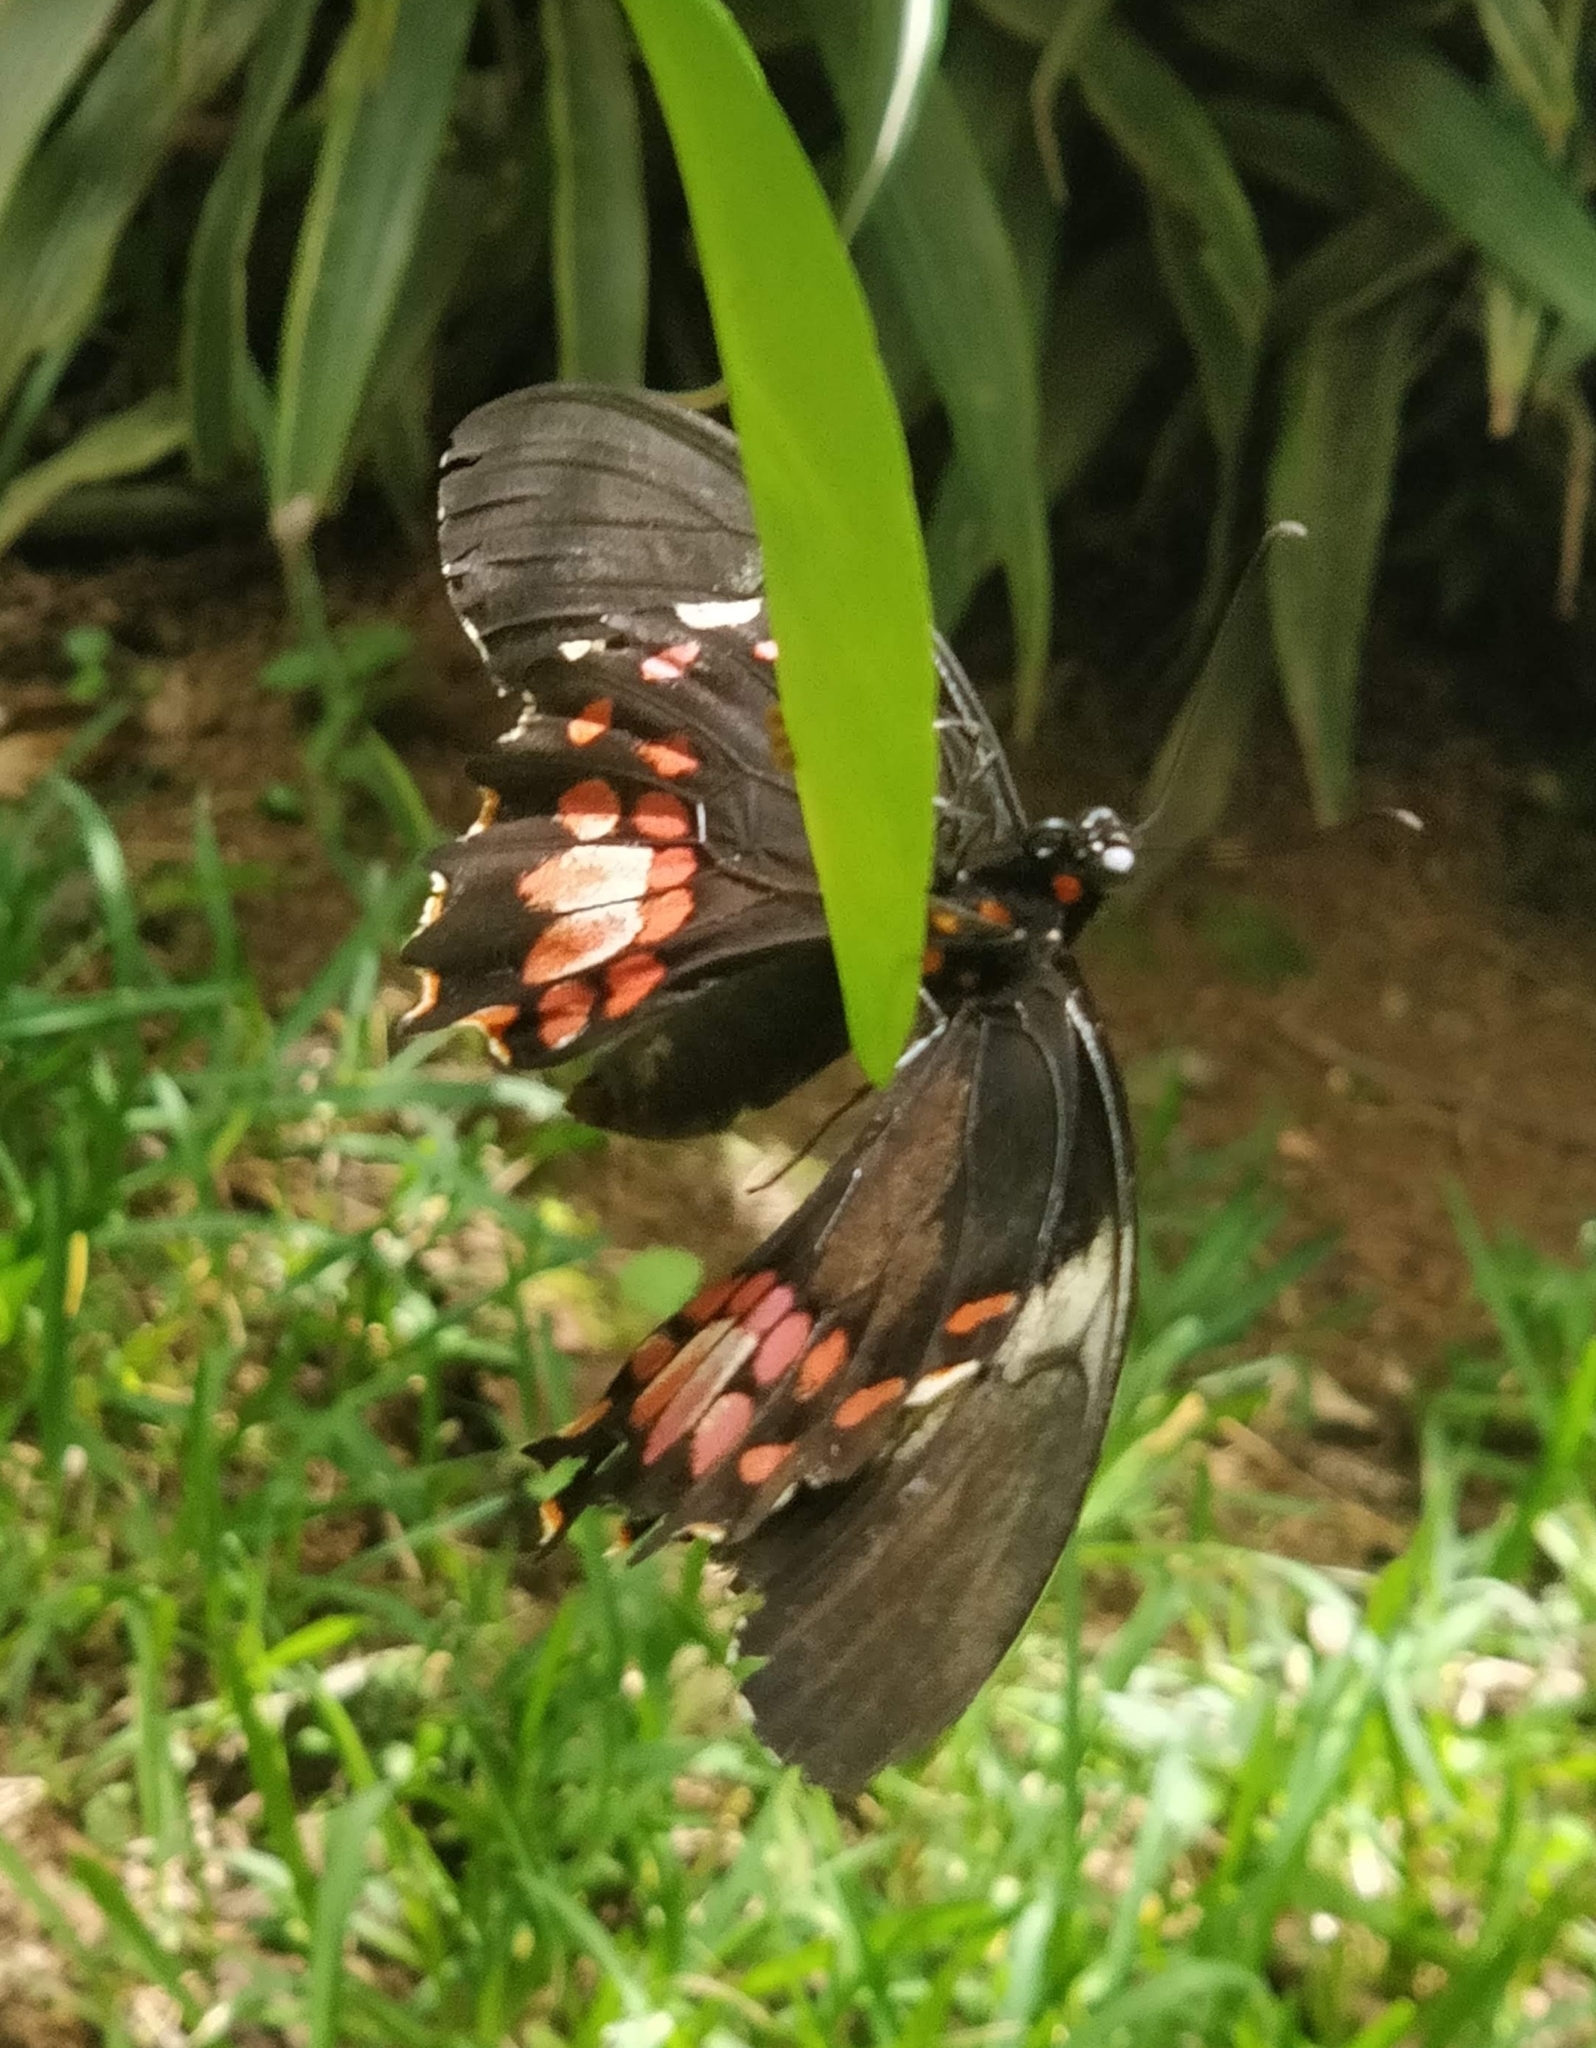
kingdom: Animalia
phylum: Arthropoda
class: Insecta
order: Lepidoptera
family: Papilionidae
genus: Papilio
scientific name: Papilio anchisiades
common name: Idaes swallowtail
